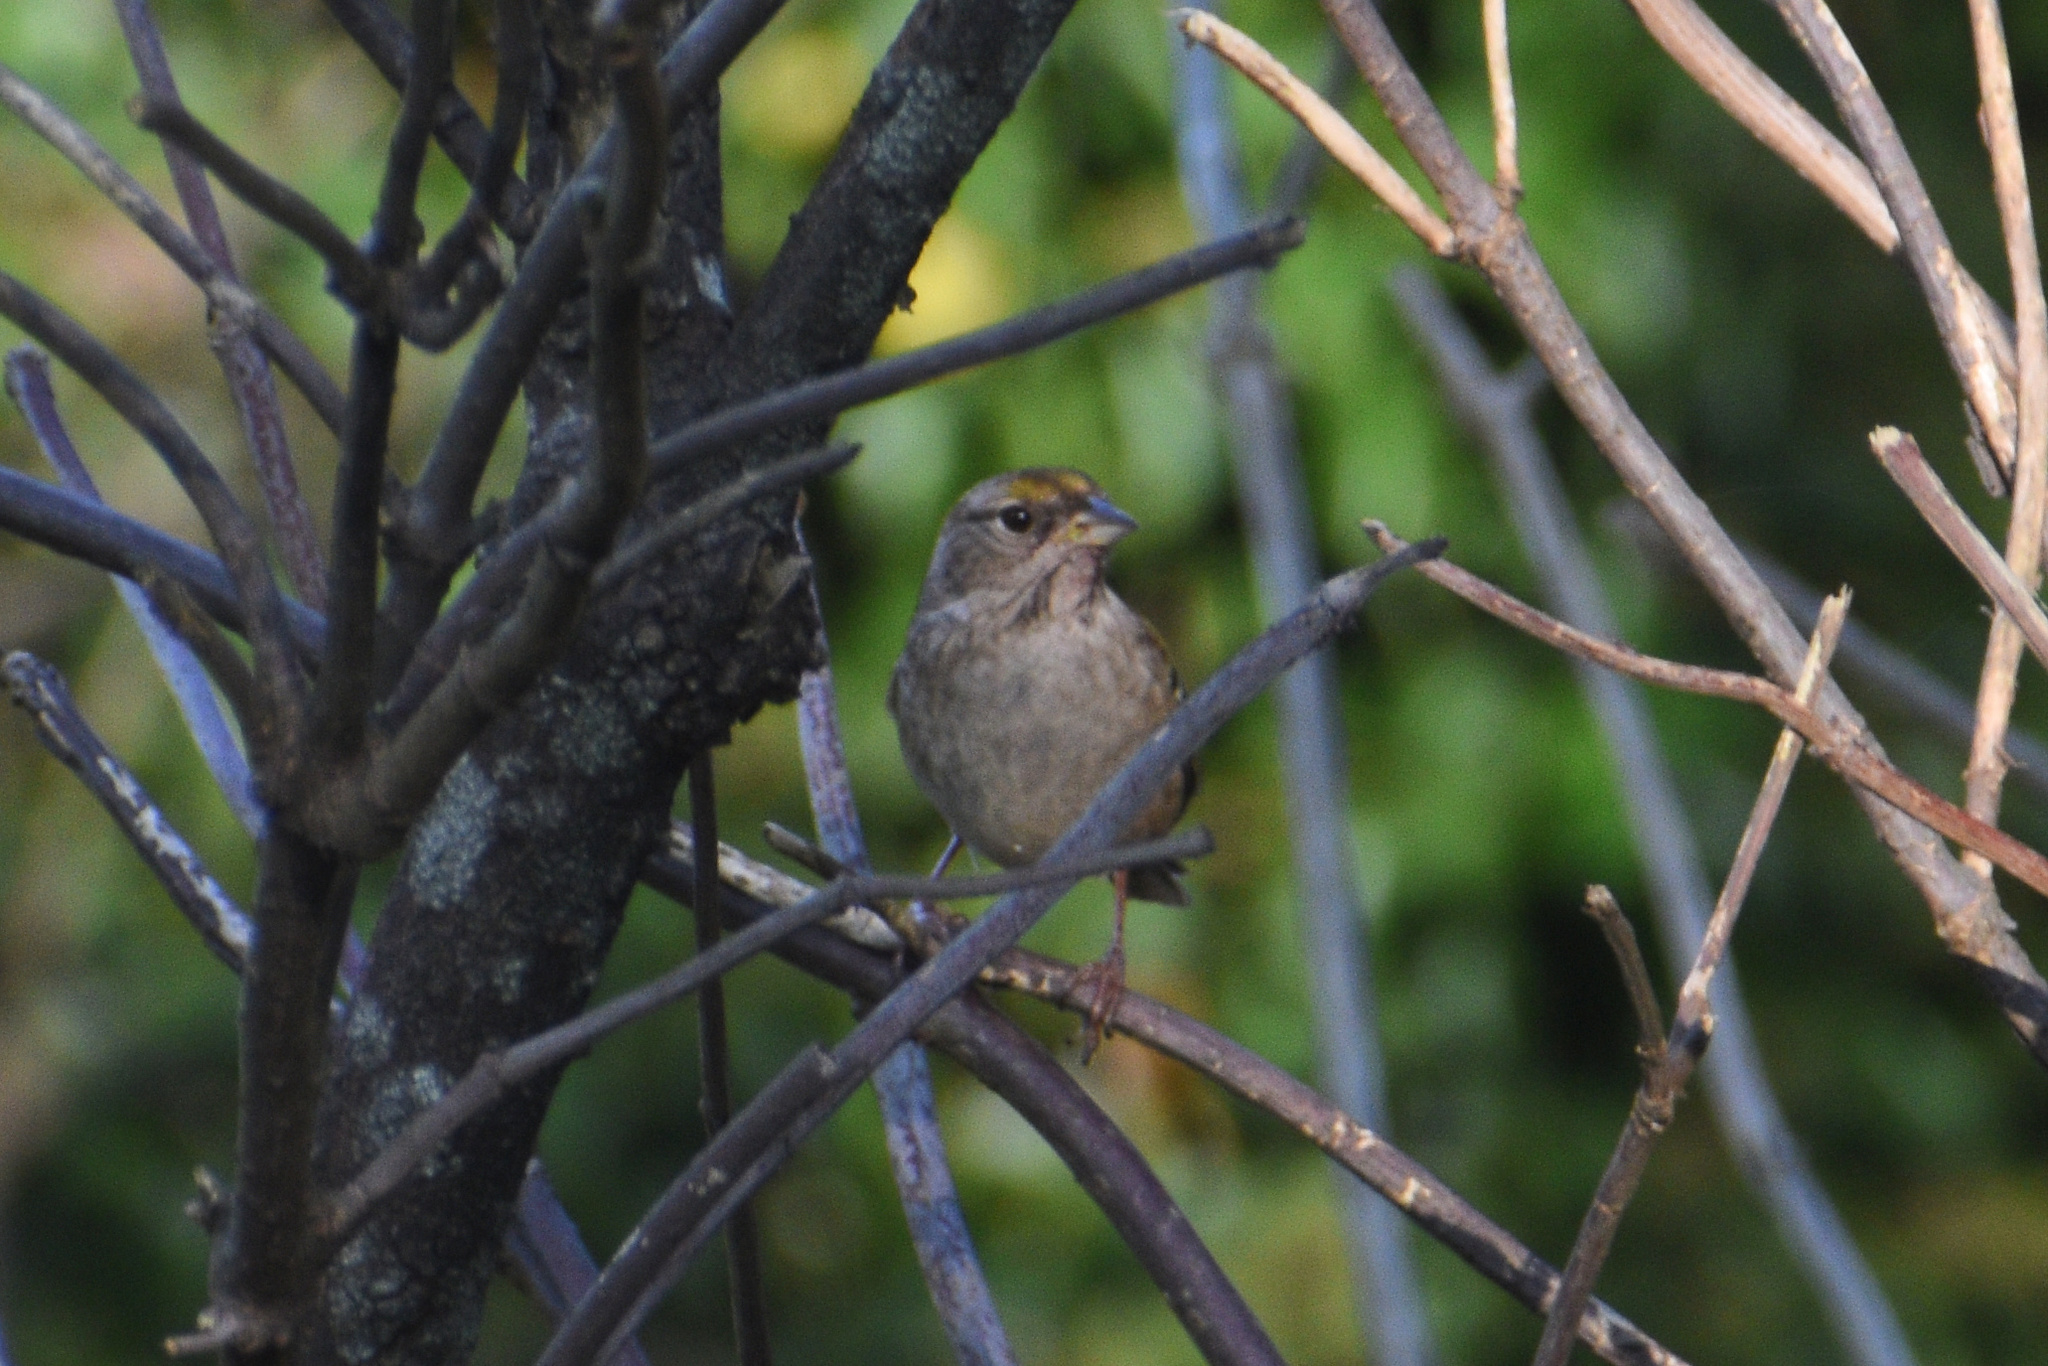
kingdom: Animalia
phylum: Chordata
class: Aves
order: Passeriformes
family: Passerellidae
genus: Zonotrichia
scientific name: Zonotrichia atricapilla
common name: Golden-crowned sparrow
